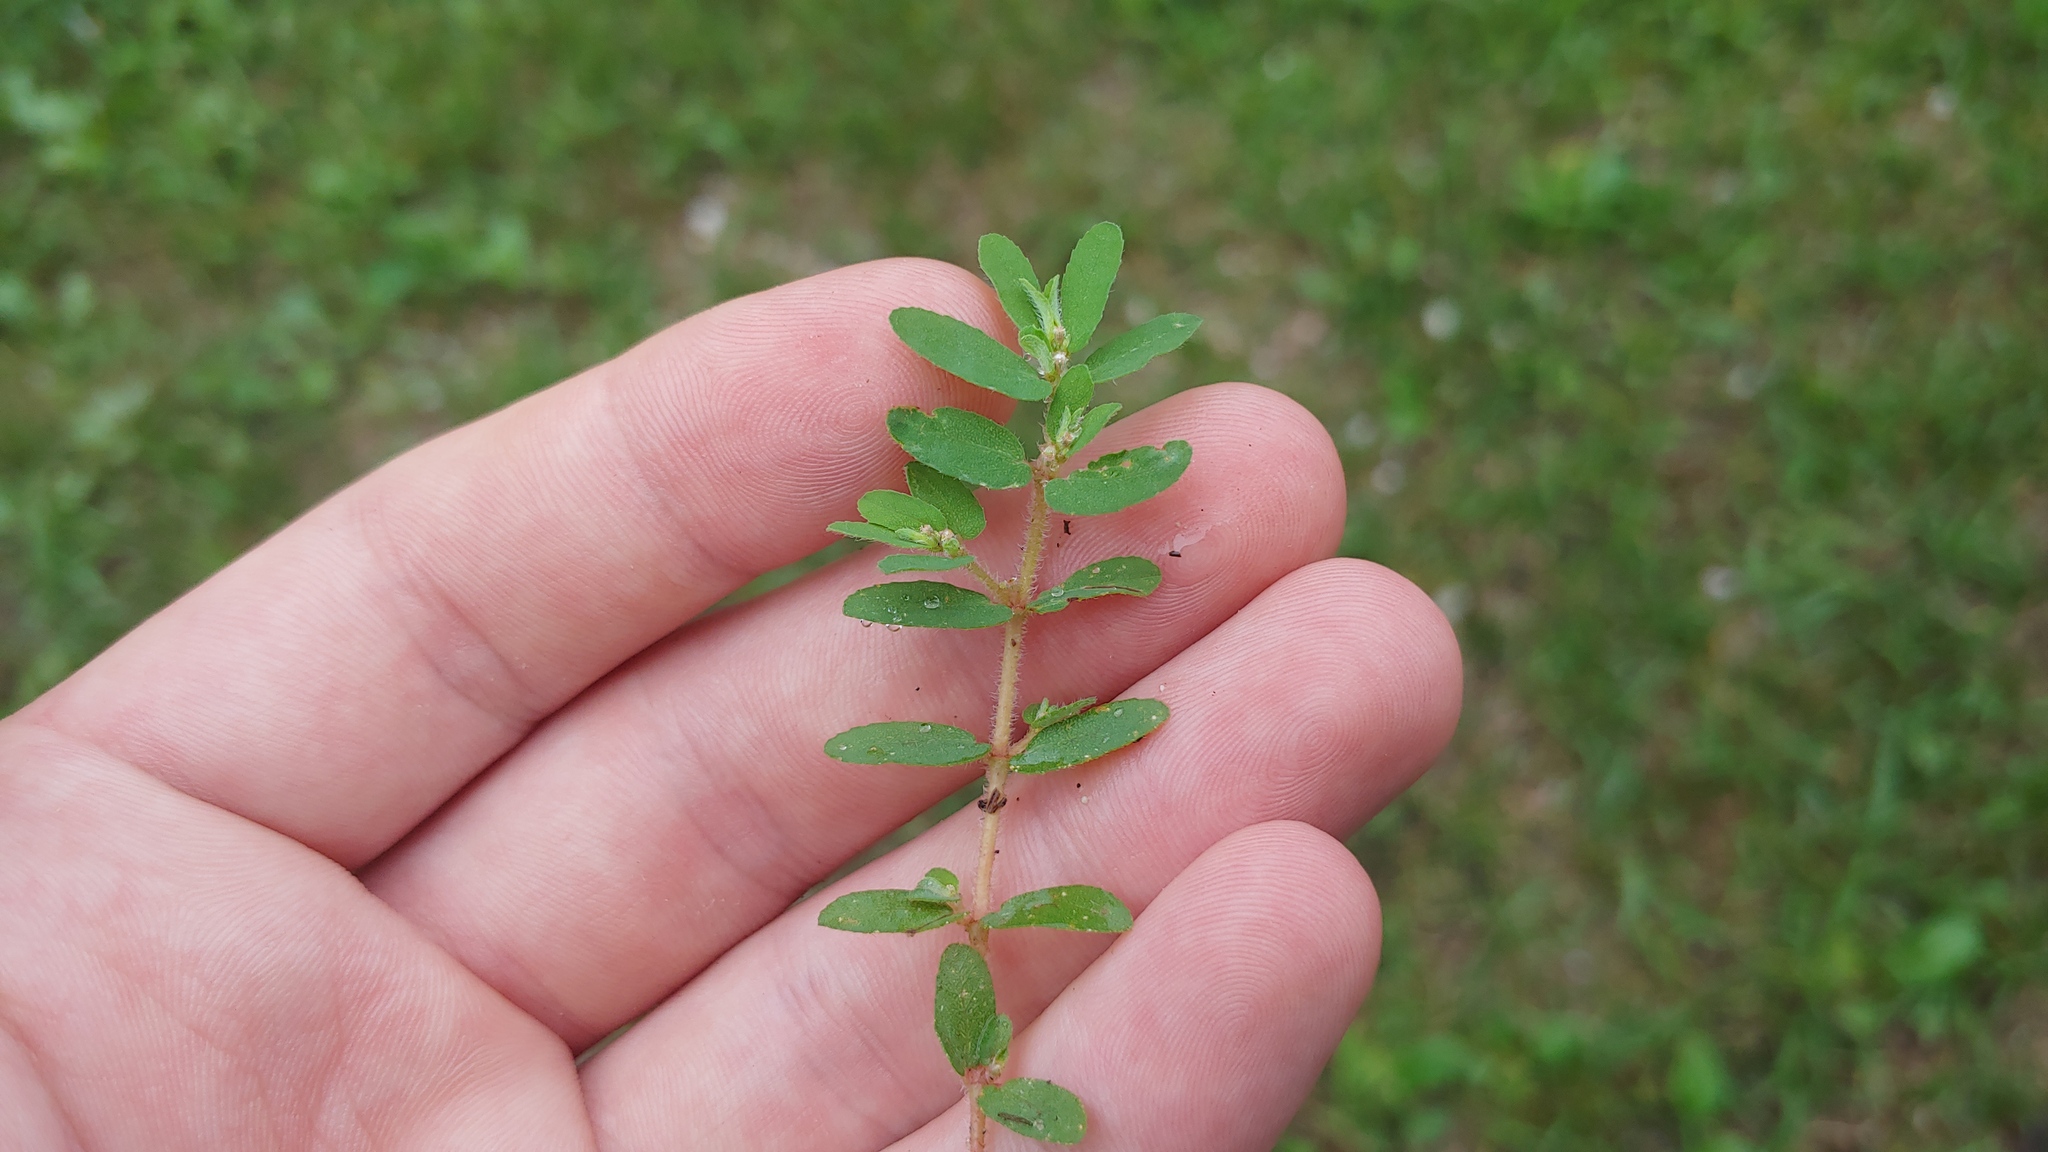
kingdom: Plantae
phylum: Tracheophyta
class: Magnoliopsida
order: Malpighiales
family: Euphorbiaceae
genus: Euphorbia
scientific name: Euphorbia maculata
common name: Spotted spurge
